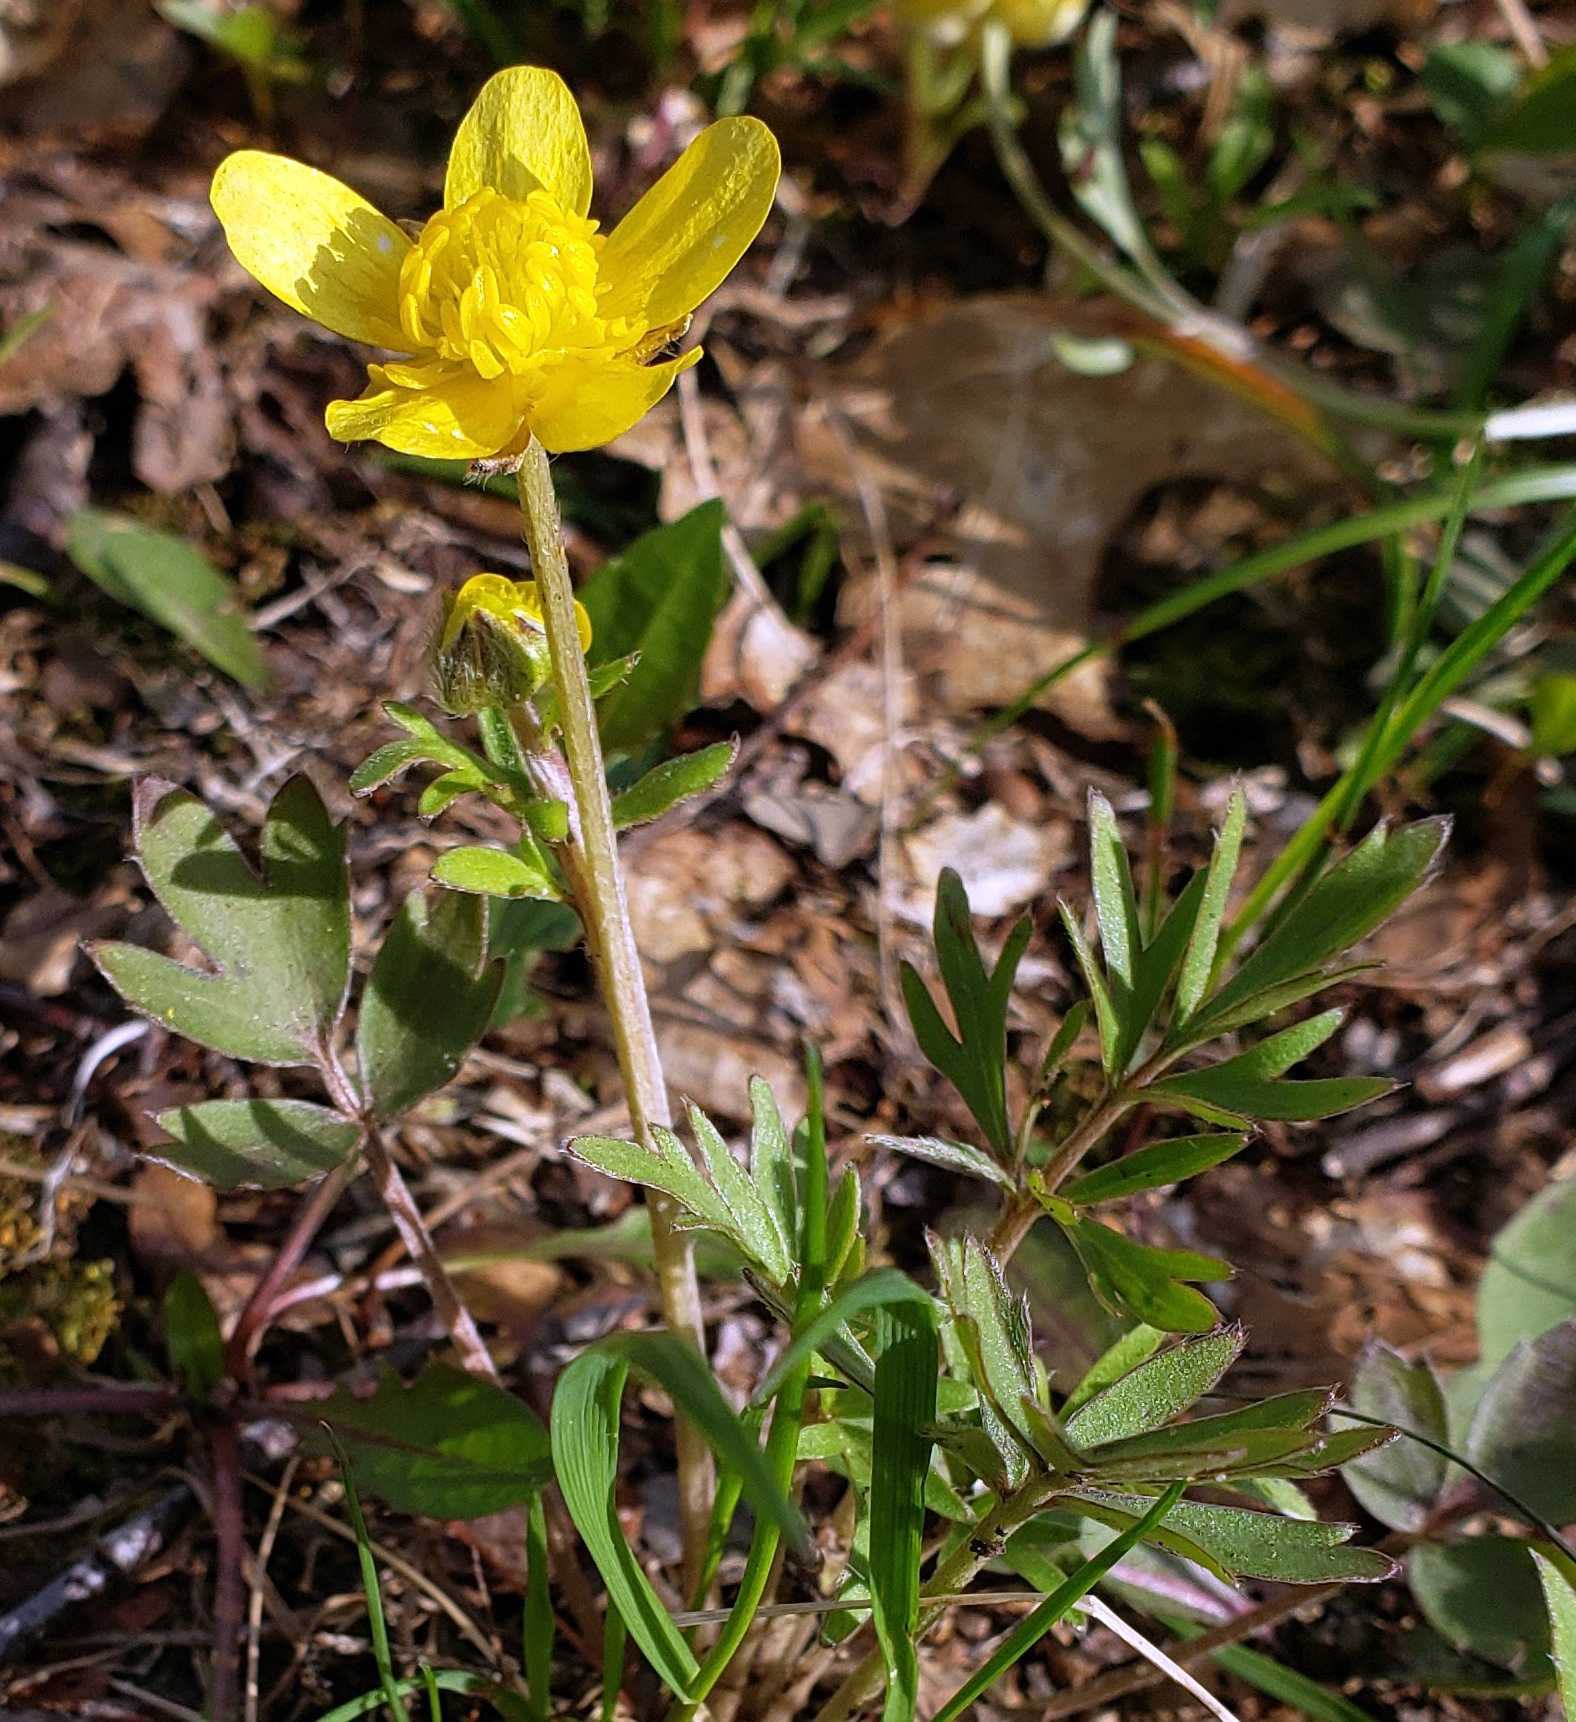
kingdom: Plantae
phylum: Tracheophyta
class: Magnoliopsida
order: Ranunculales
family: Ranunculaceae
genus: Ranunculus
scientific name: Ranunculus fascicularis
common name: Early buttercup
